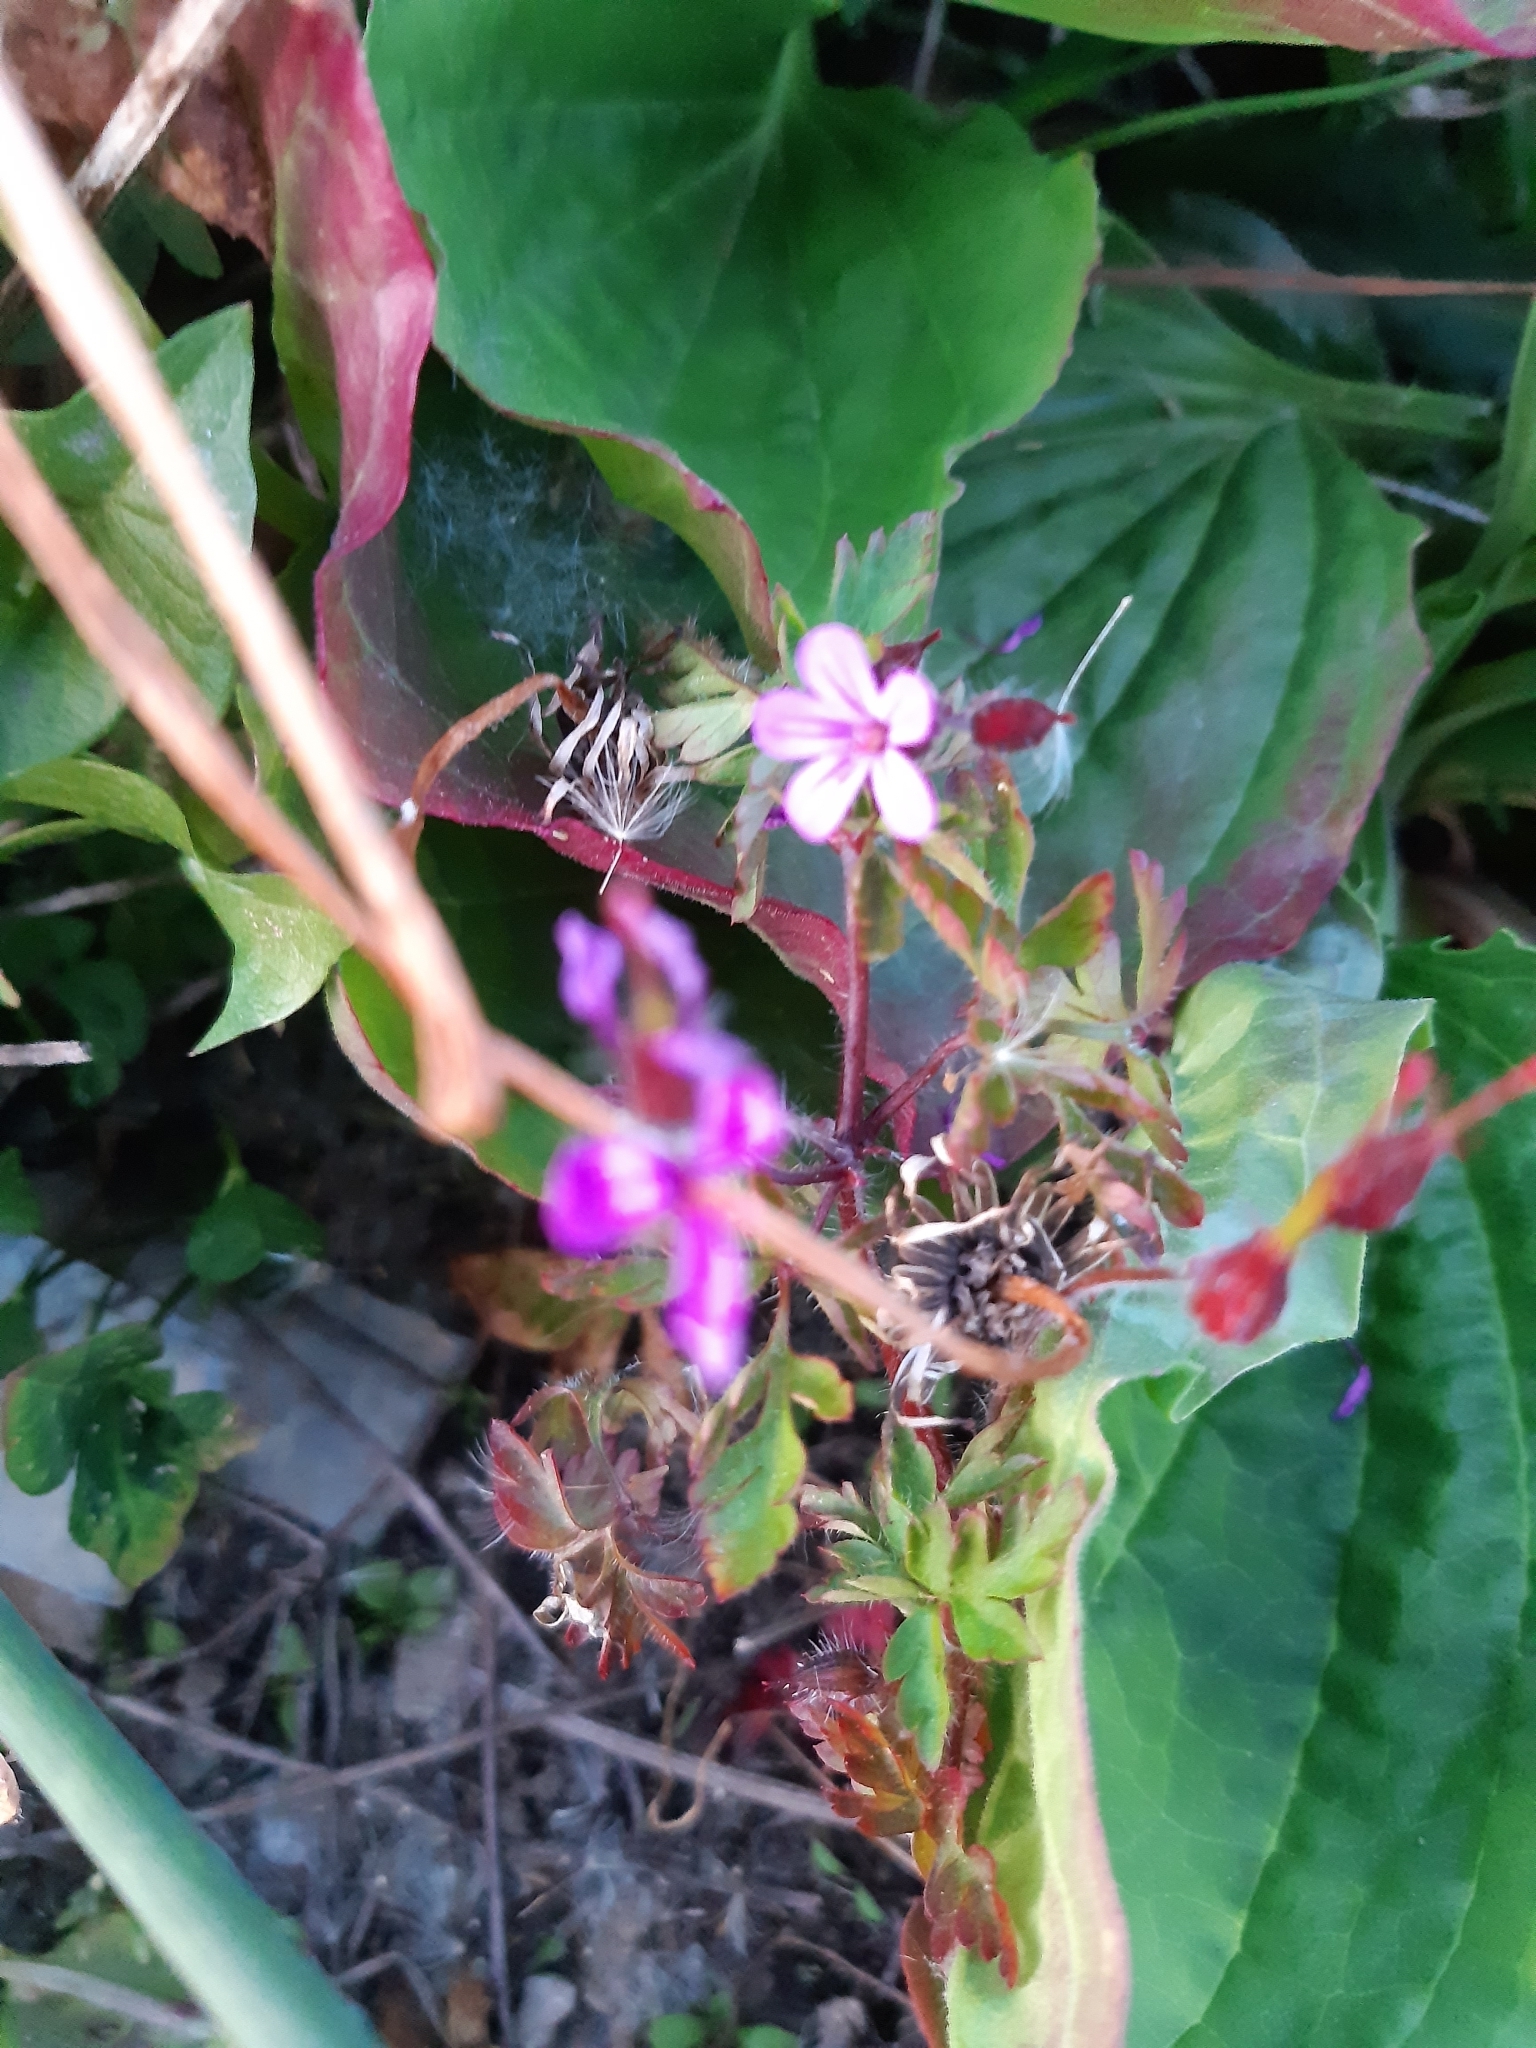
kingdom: Plantae
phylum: Tracheophyta
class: Magnoliopsida
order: Geraniales
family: Geraniaceae
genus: Geranium
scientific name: Geranium robertianum
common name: Herb-robert
